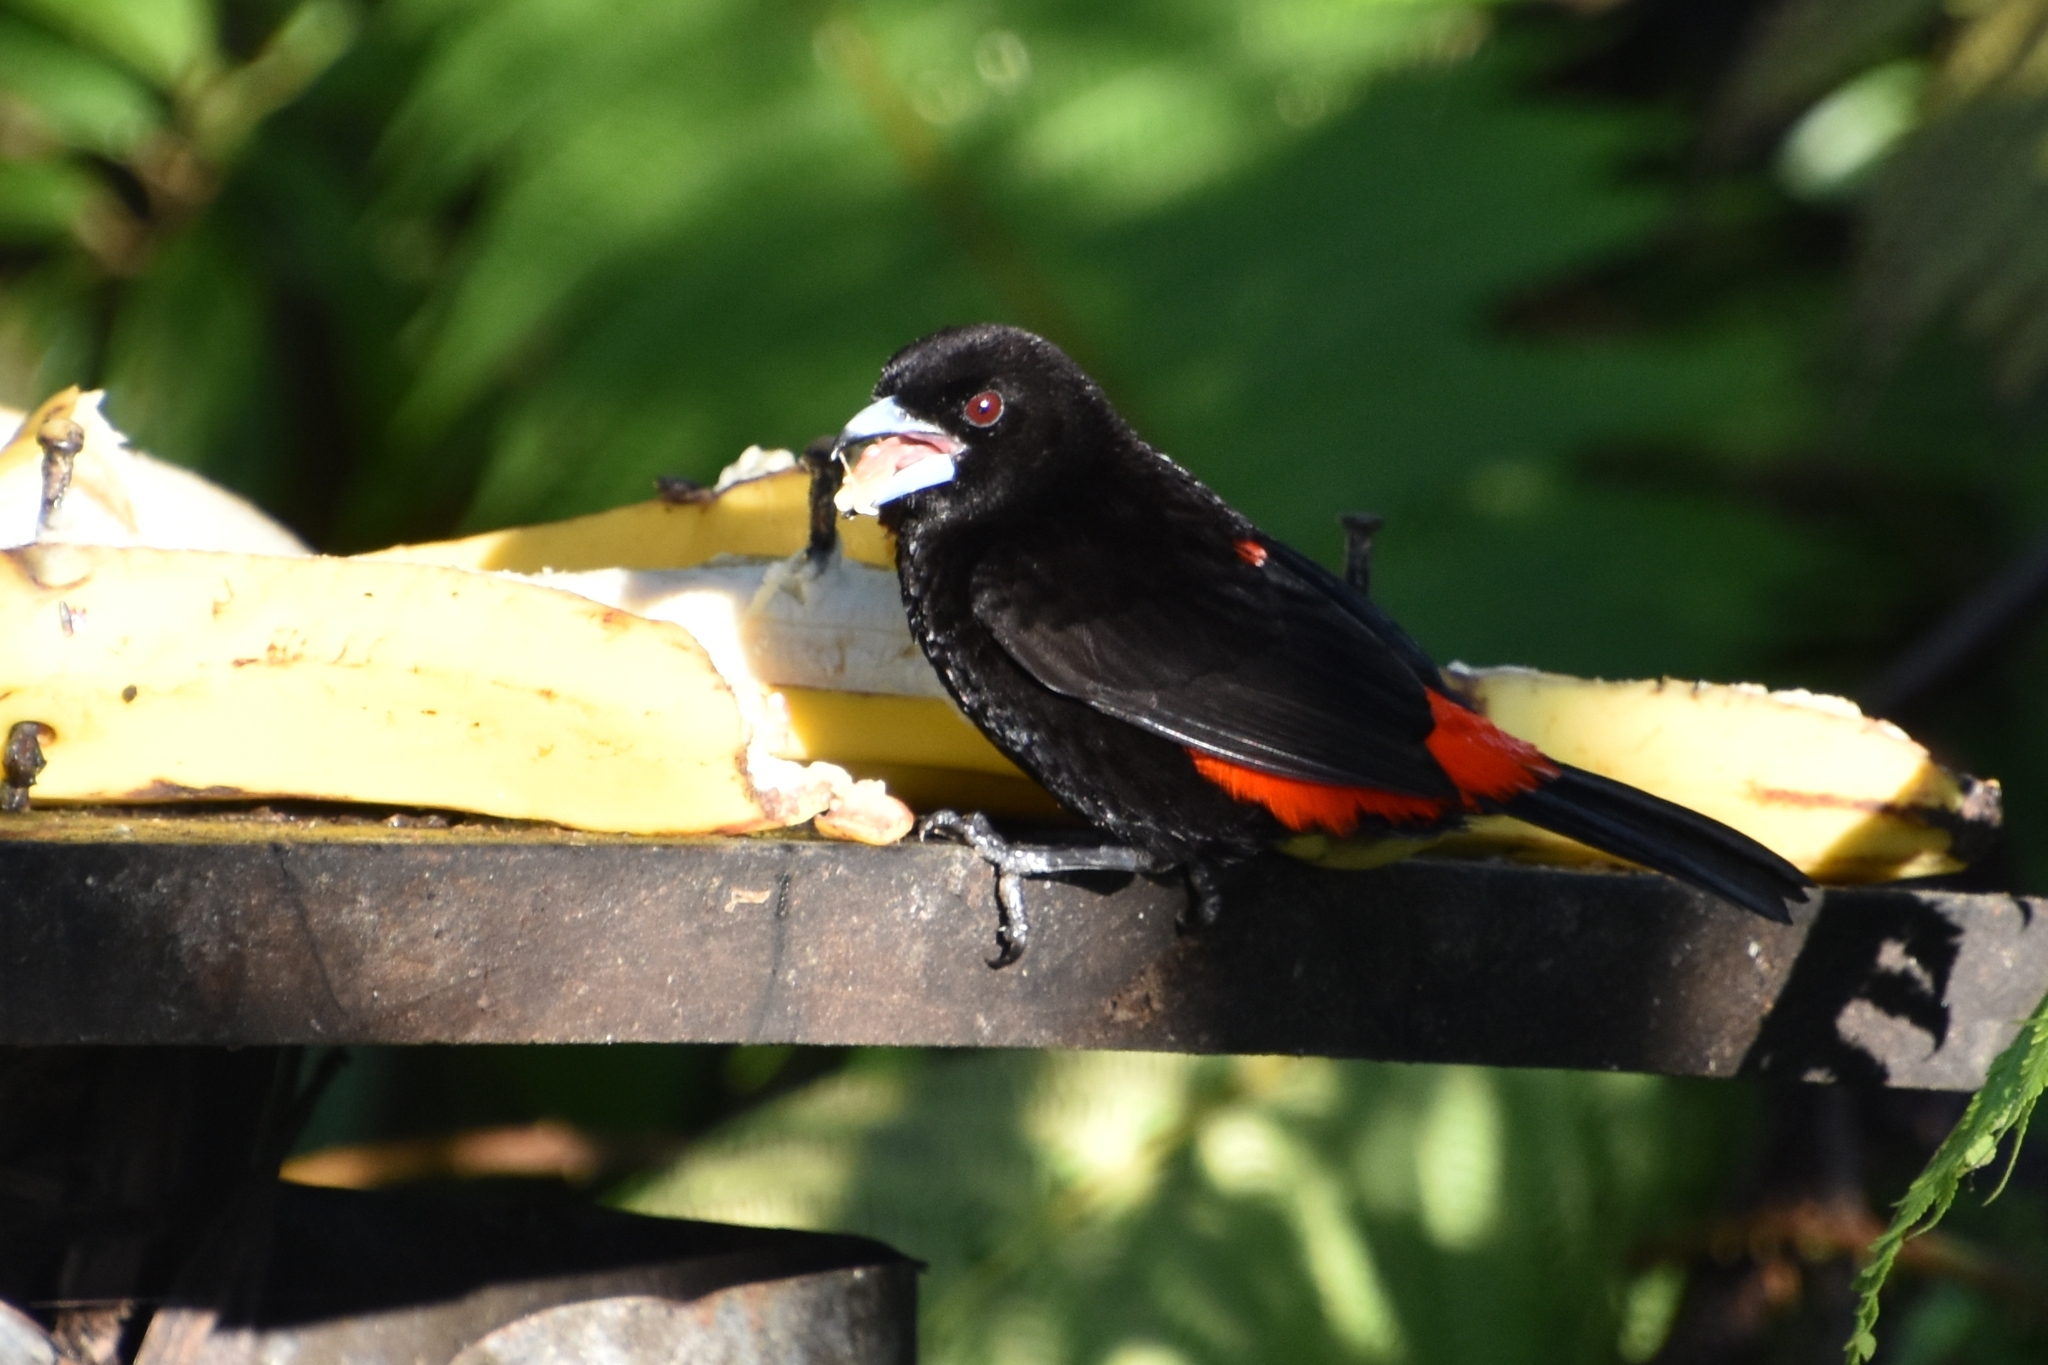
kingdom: Animalia
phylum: Chordata
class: Aves
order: Passeriformes
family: Thraupidae
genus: Ramphocelus
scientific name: Ramphocelus passerinii
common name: Passerini's tanager
